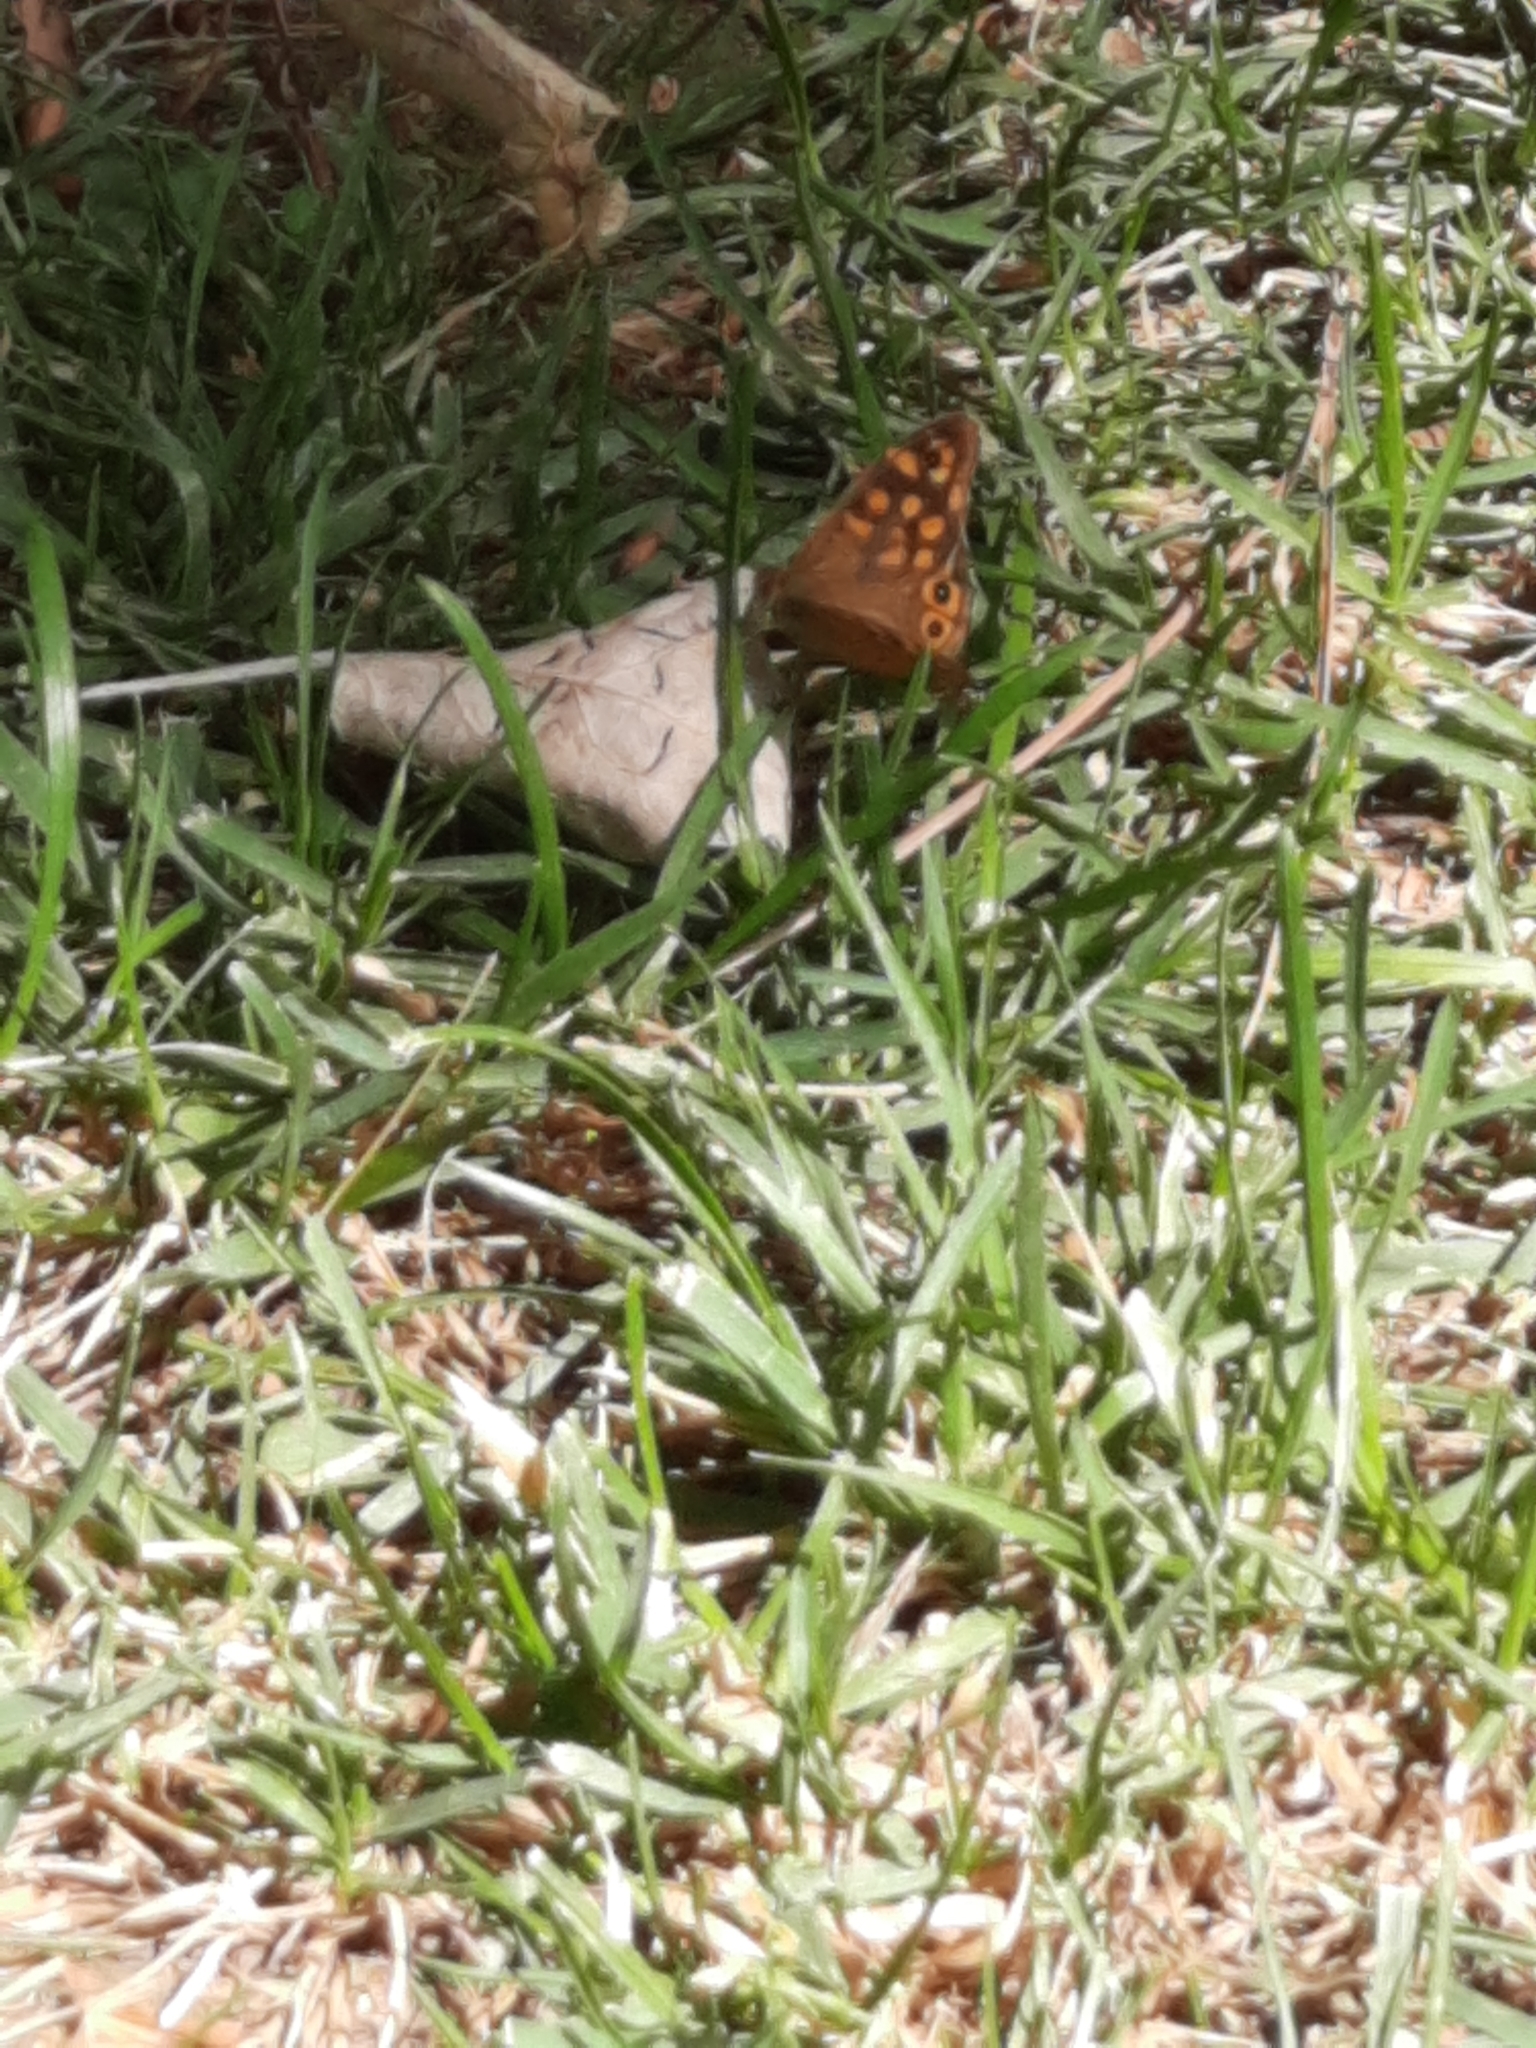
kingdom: Animalia
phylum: Arthropoda
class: Insecta
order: Lepidoptera
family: Nymphalidae
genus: Pararge
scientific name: Pararge aegeria
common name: Speckled wood
